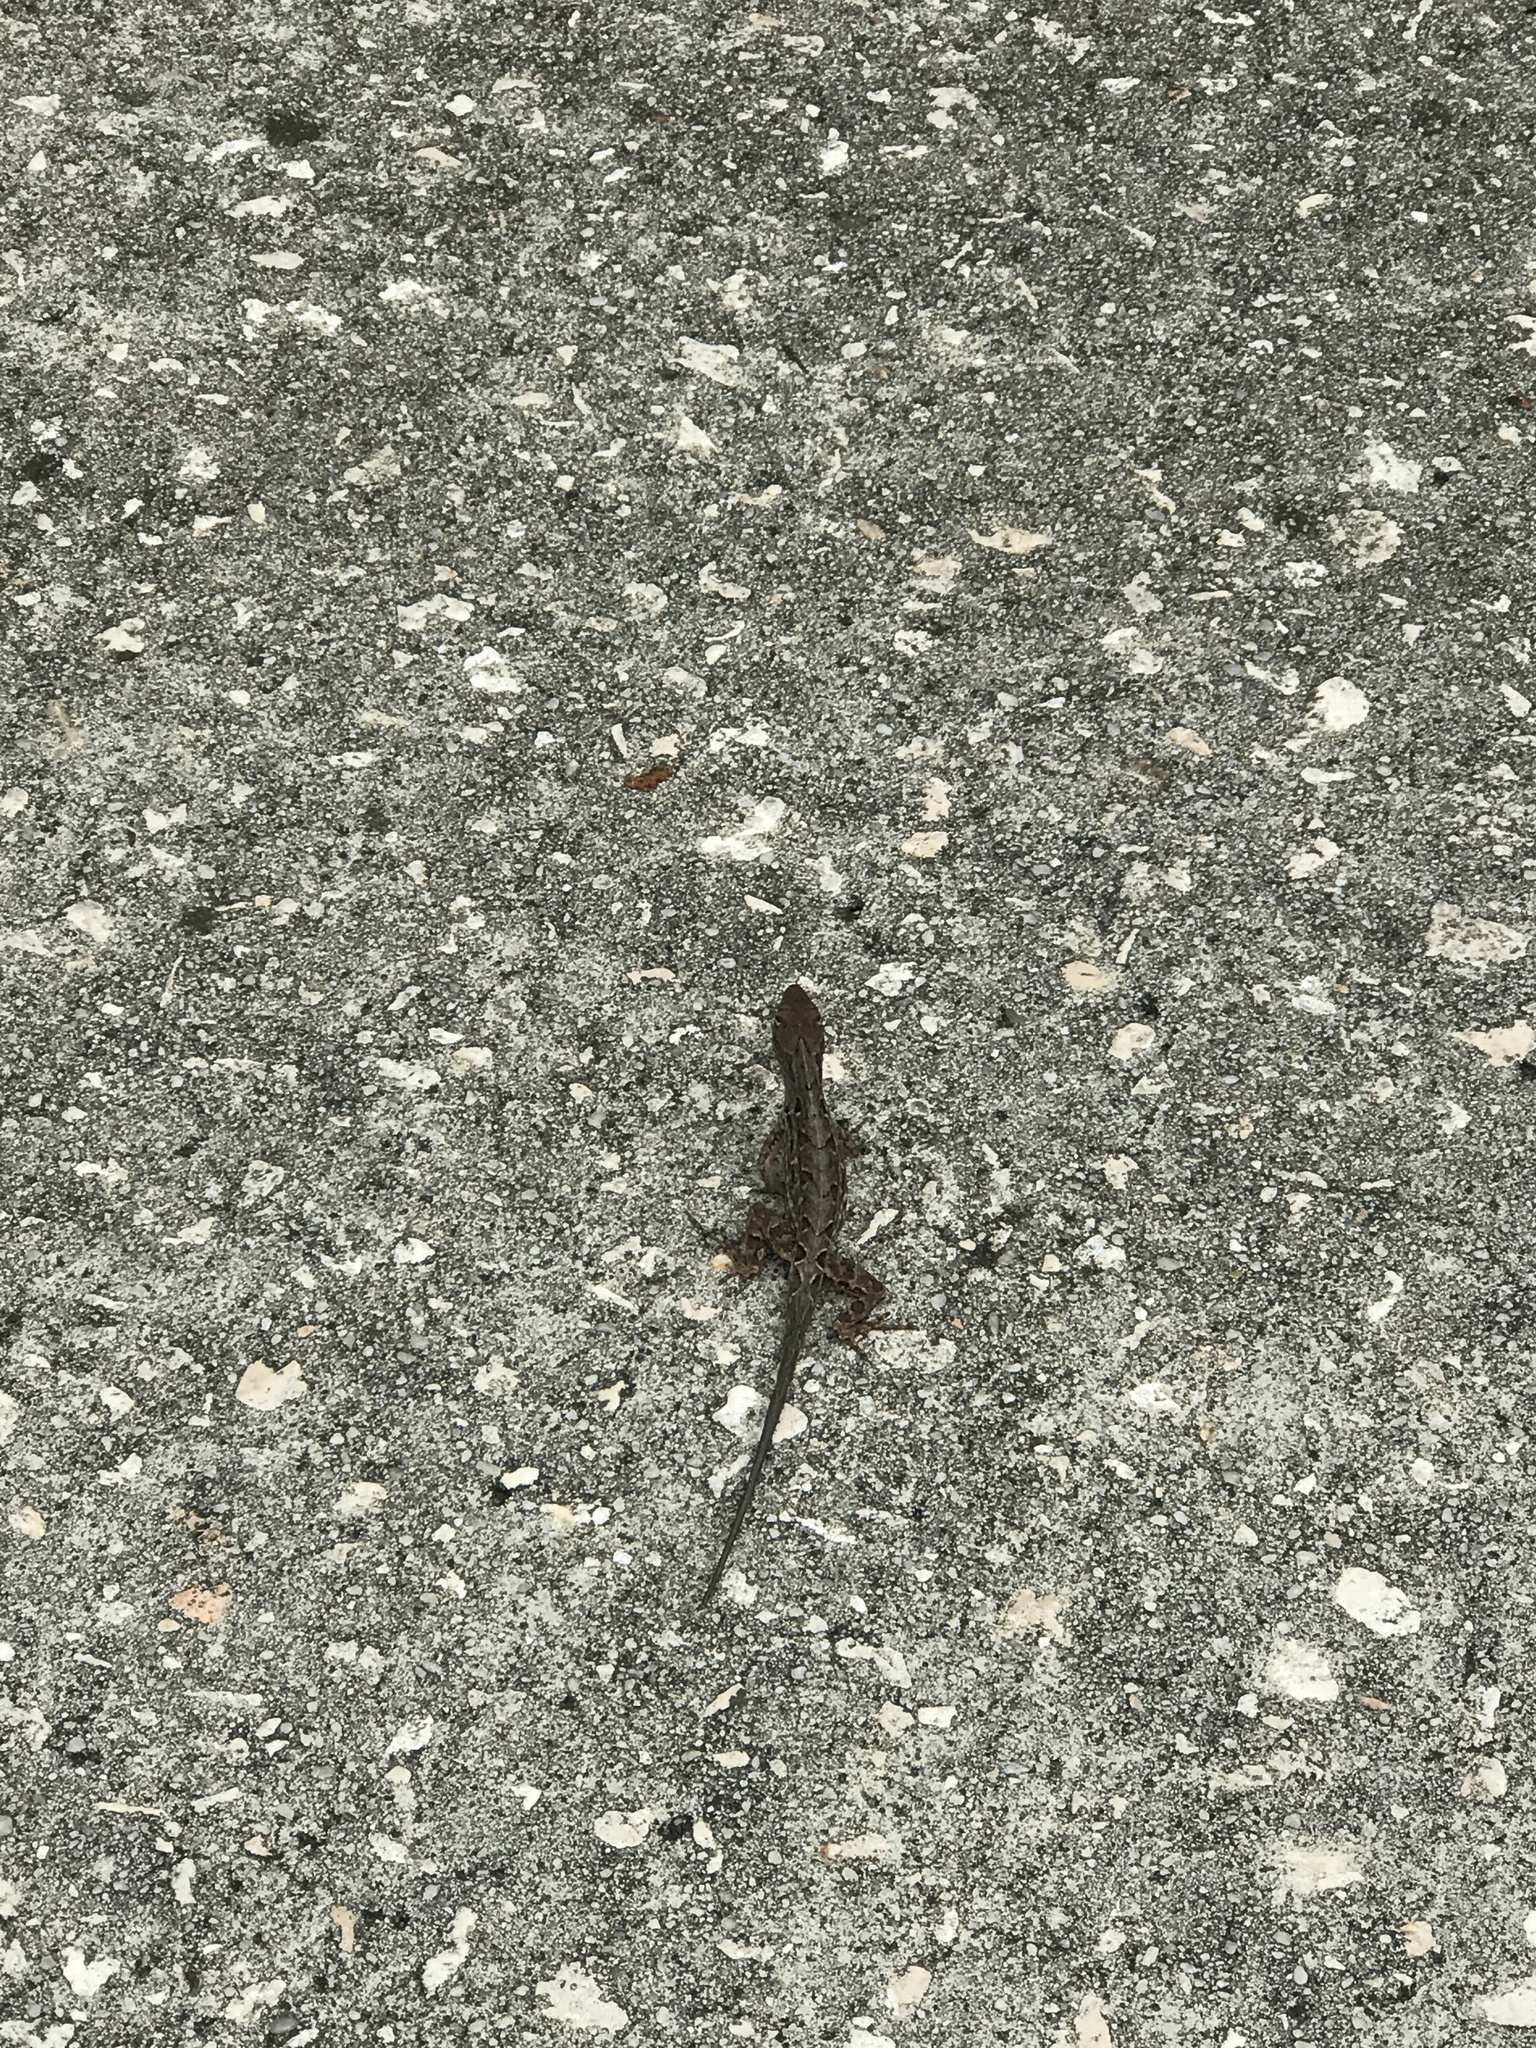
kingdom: Animalia
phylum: Chordata
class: Squamata
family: Dactyloidae
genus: Anolis
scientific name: Anolis sagrei
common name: Brown anole
